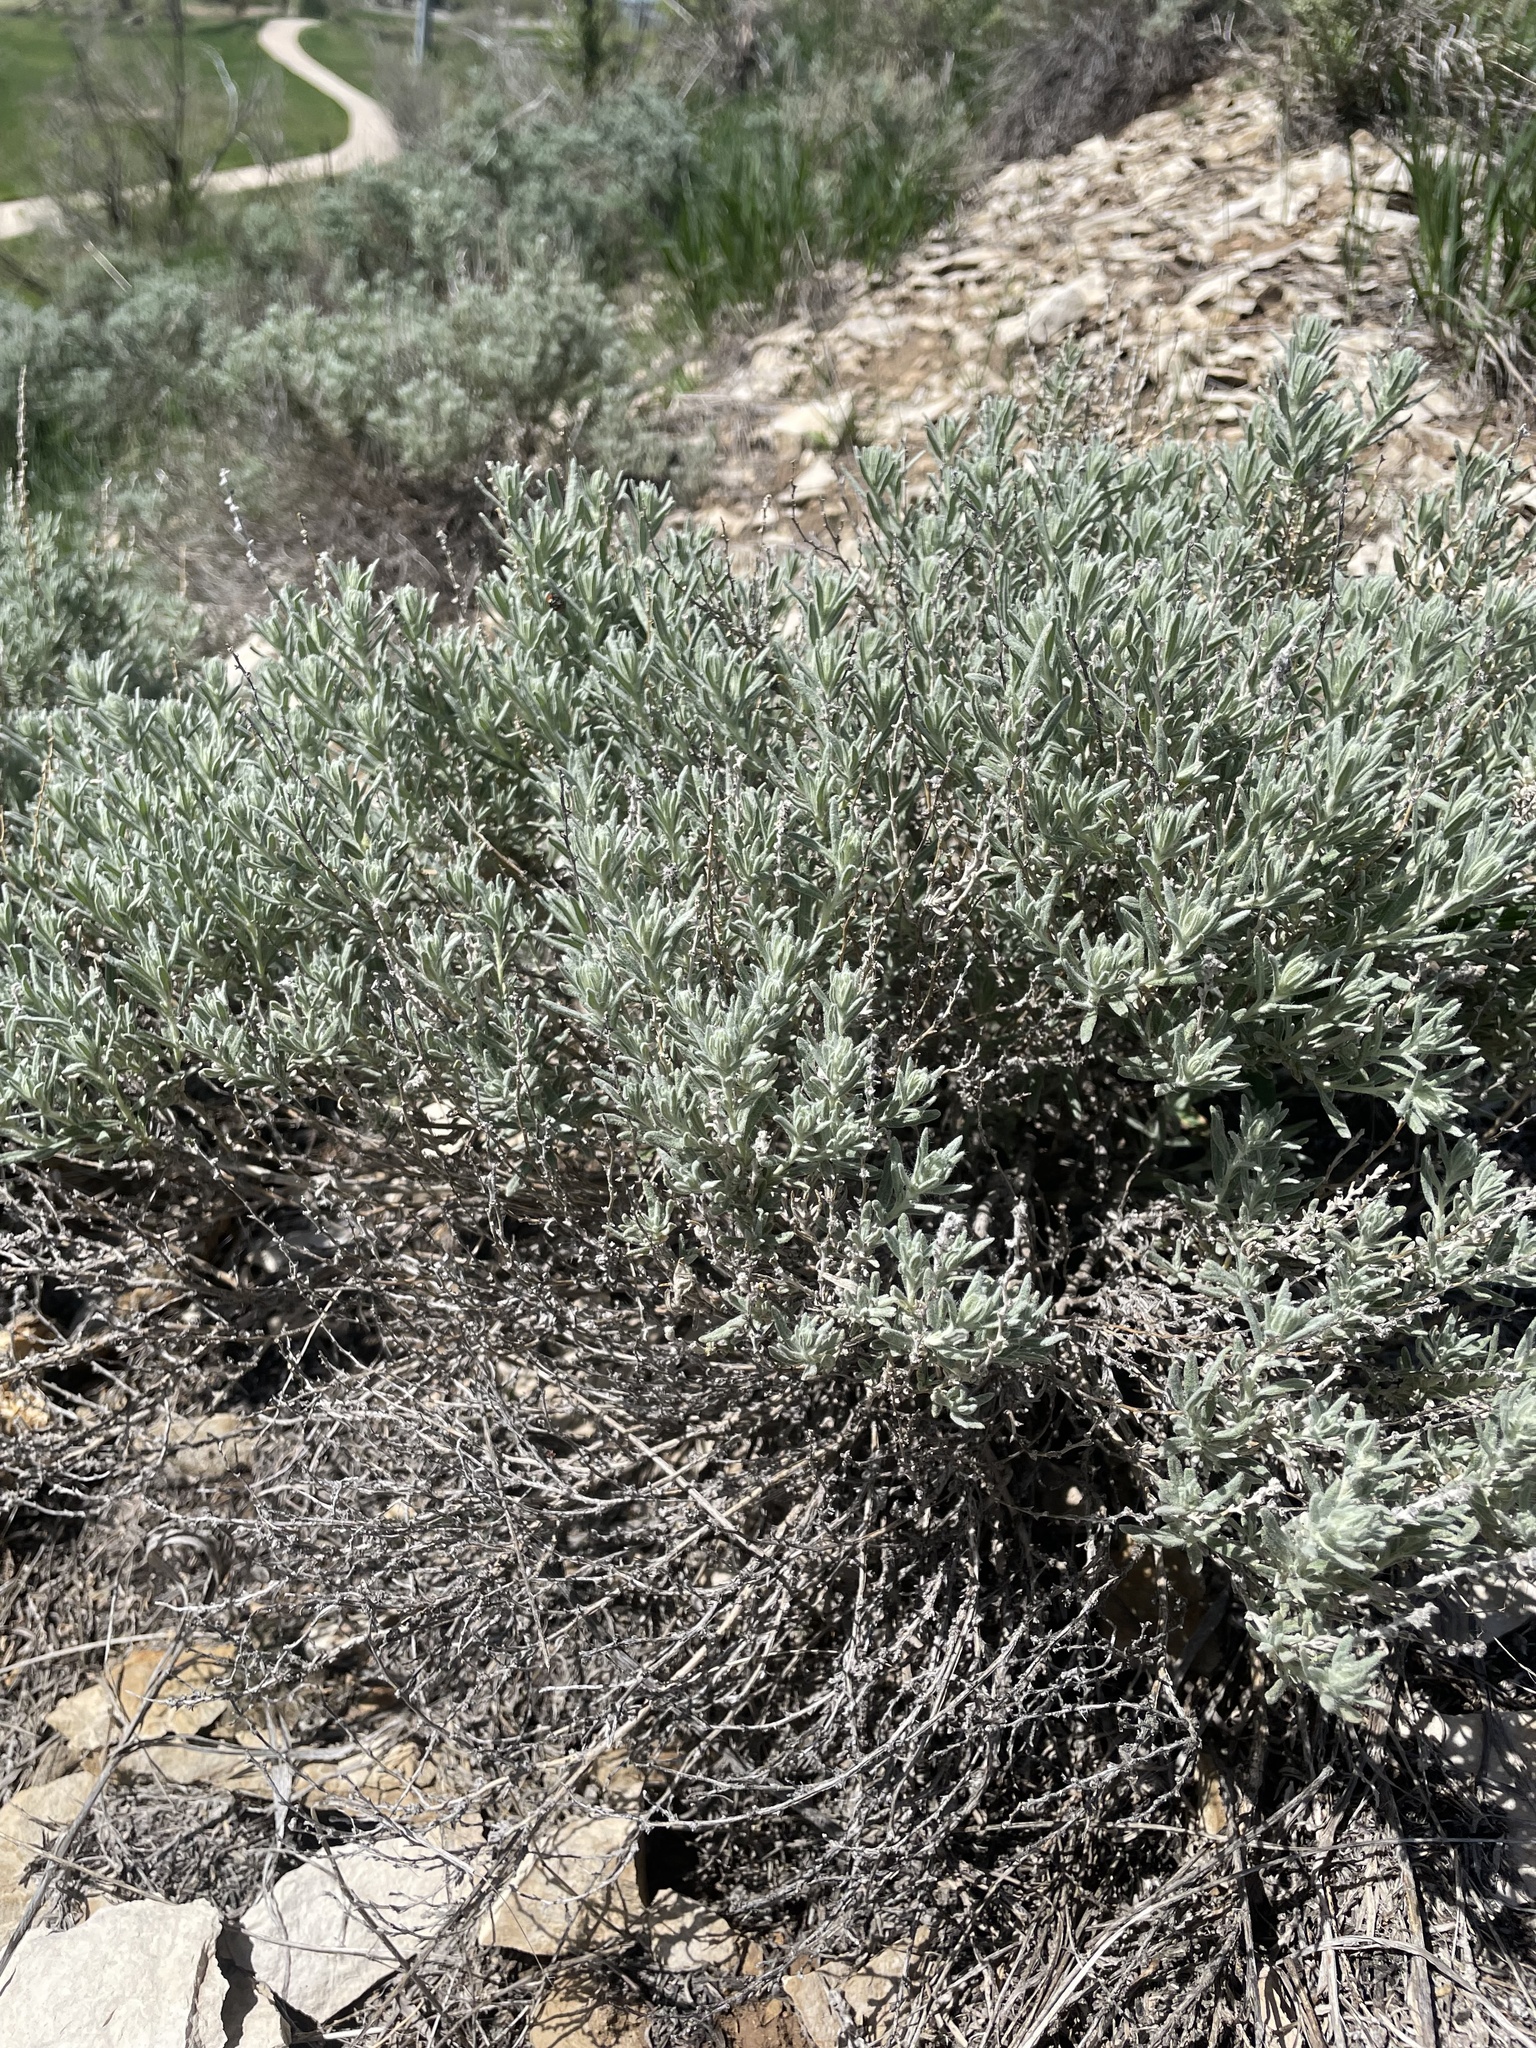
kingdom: Plantae
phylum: Tracheophyta
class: Magnoliopsida
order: Caryophyllales
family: Amaranthaceae
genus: Krascheninnikovia
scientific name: Krascheninnikovia lanata
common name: Winterfat
